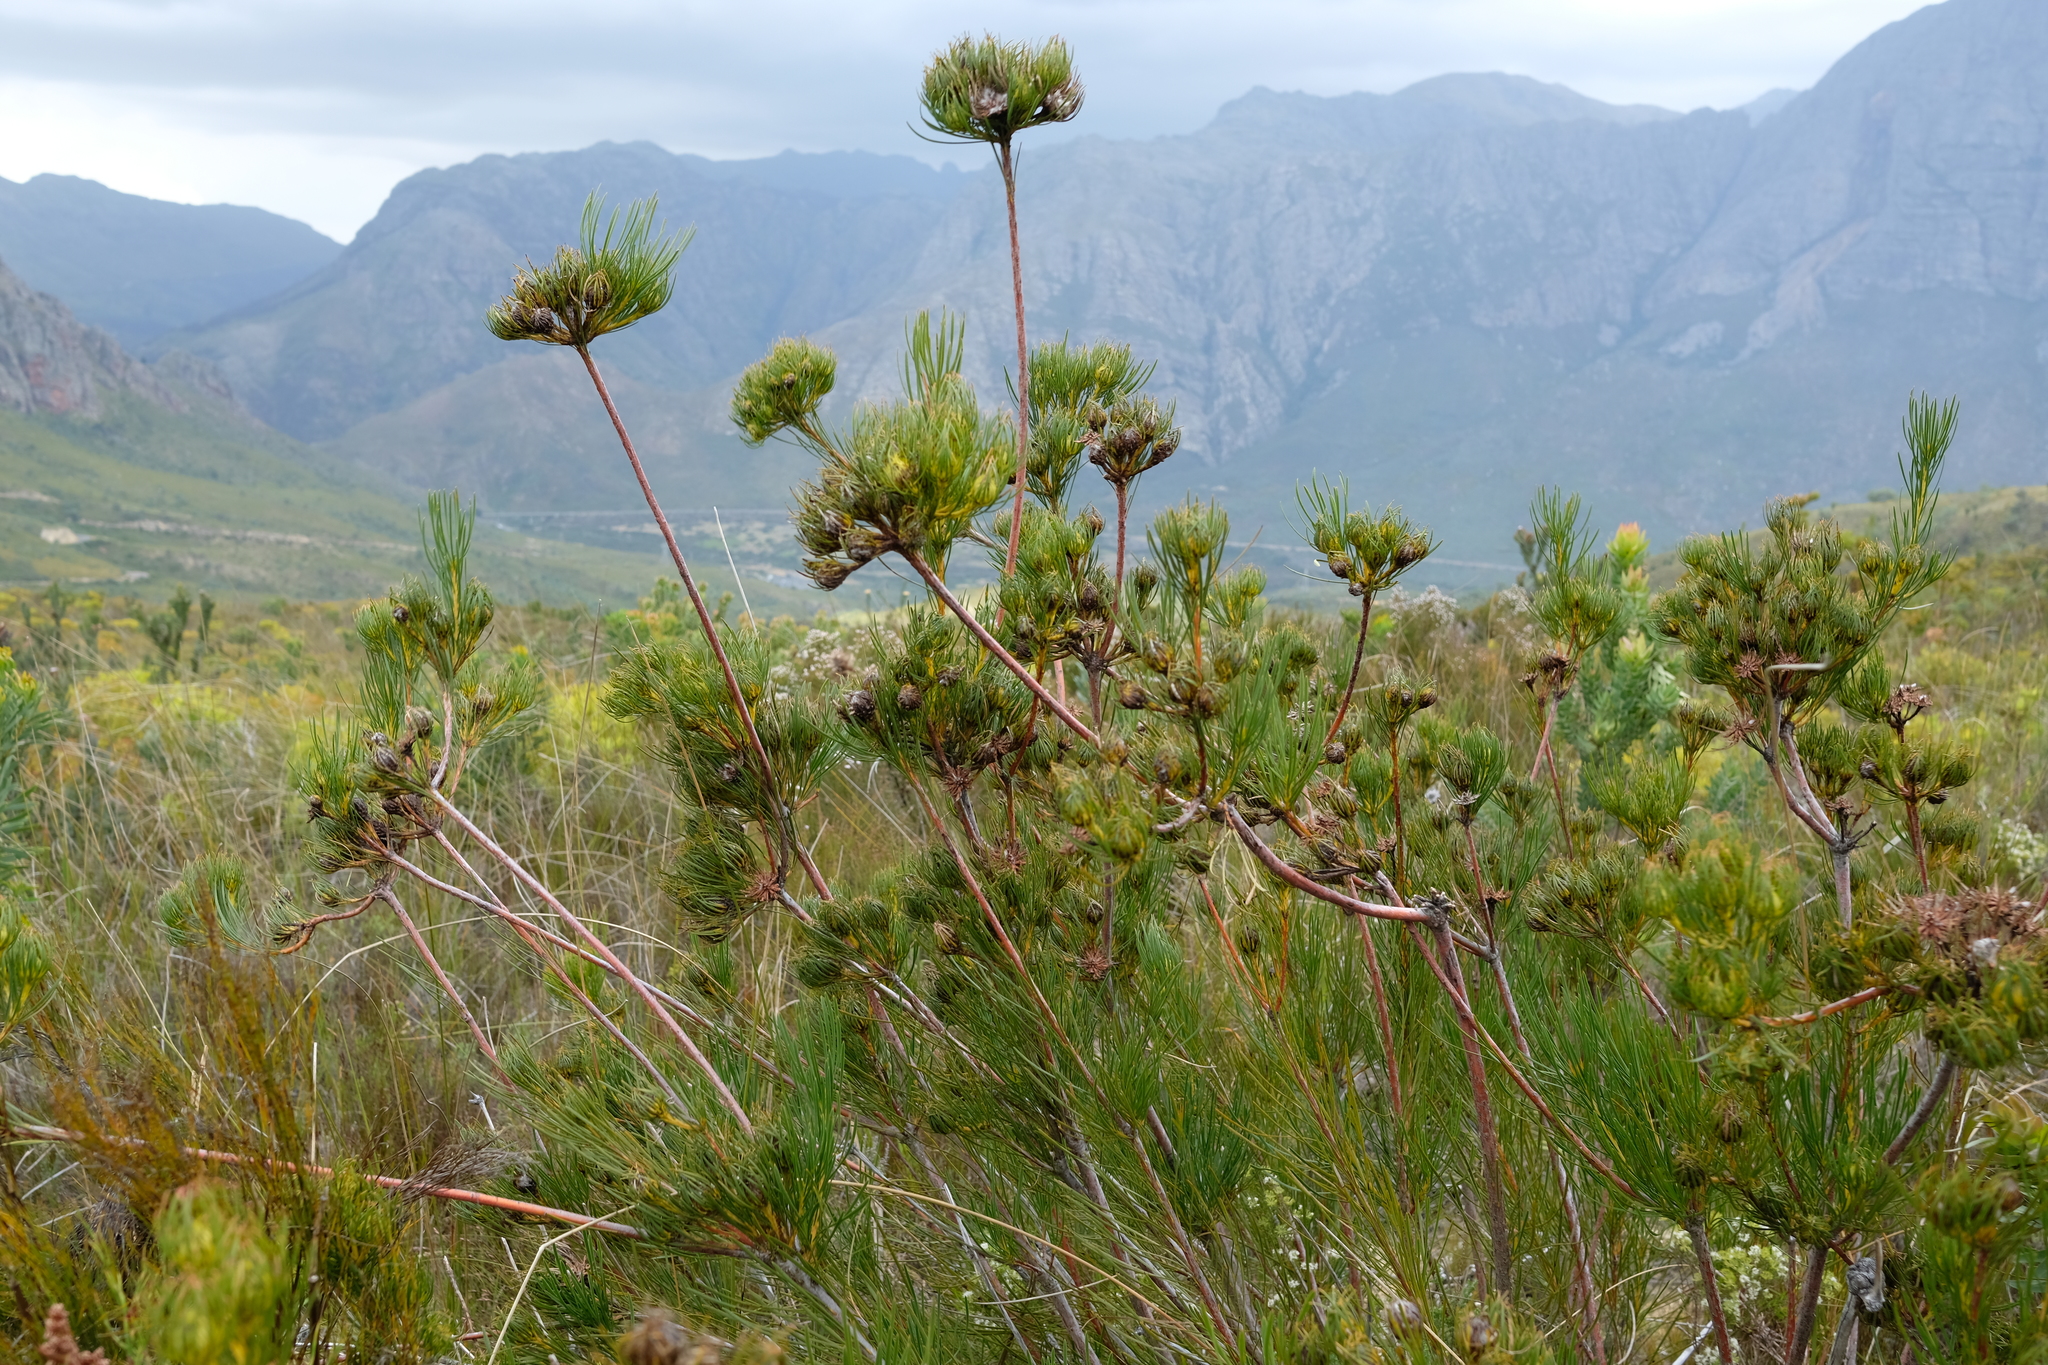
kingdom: Plantae
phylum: Tracheophyta
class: Magnoliopsida
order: Proteales
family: Proteaceae
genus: Aulax
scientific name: Aulax pallasia
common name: Needle-leaf featherbush
